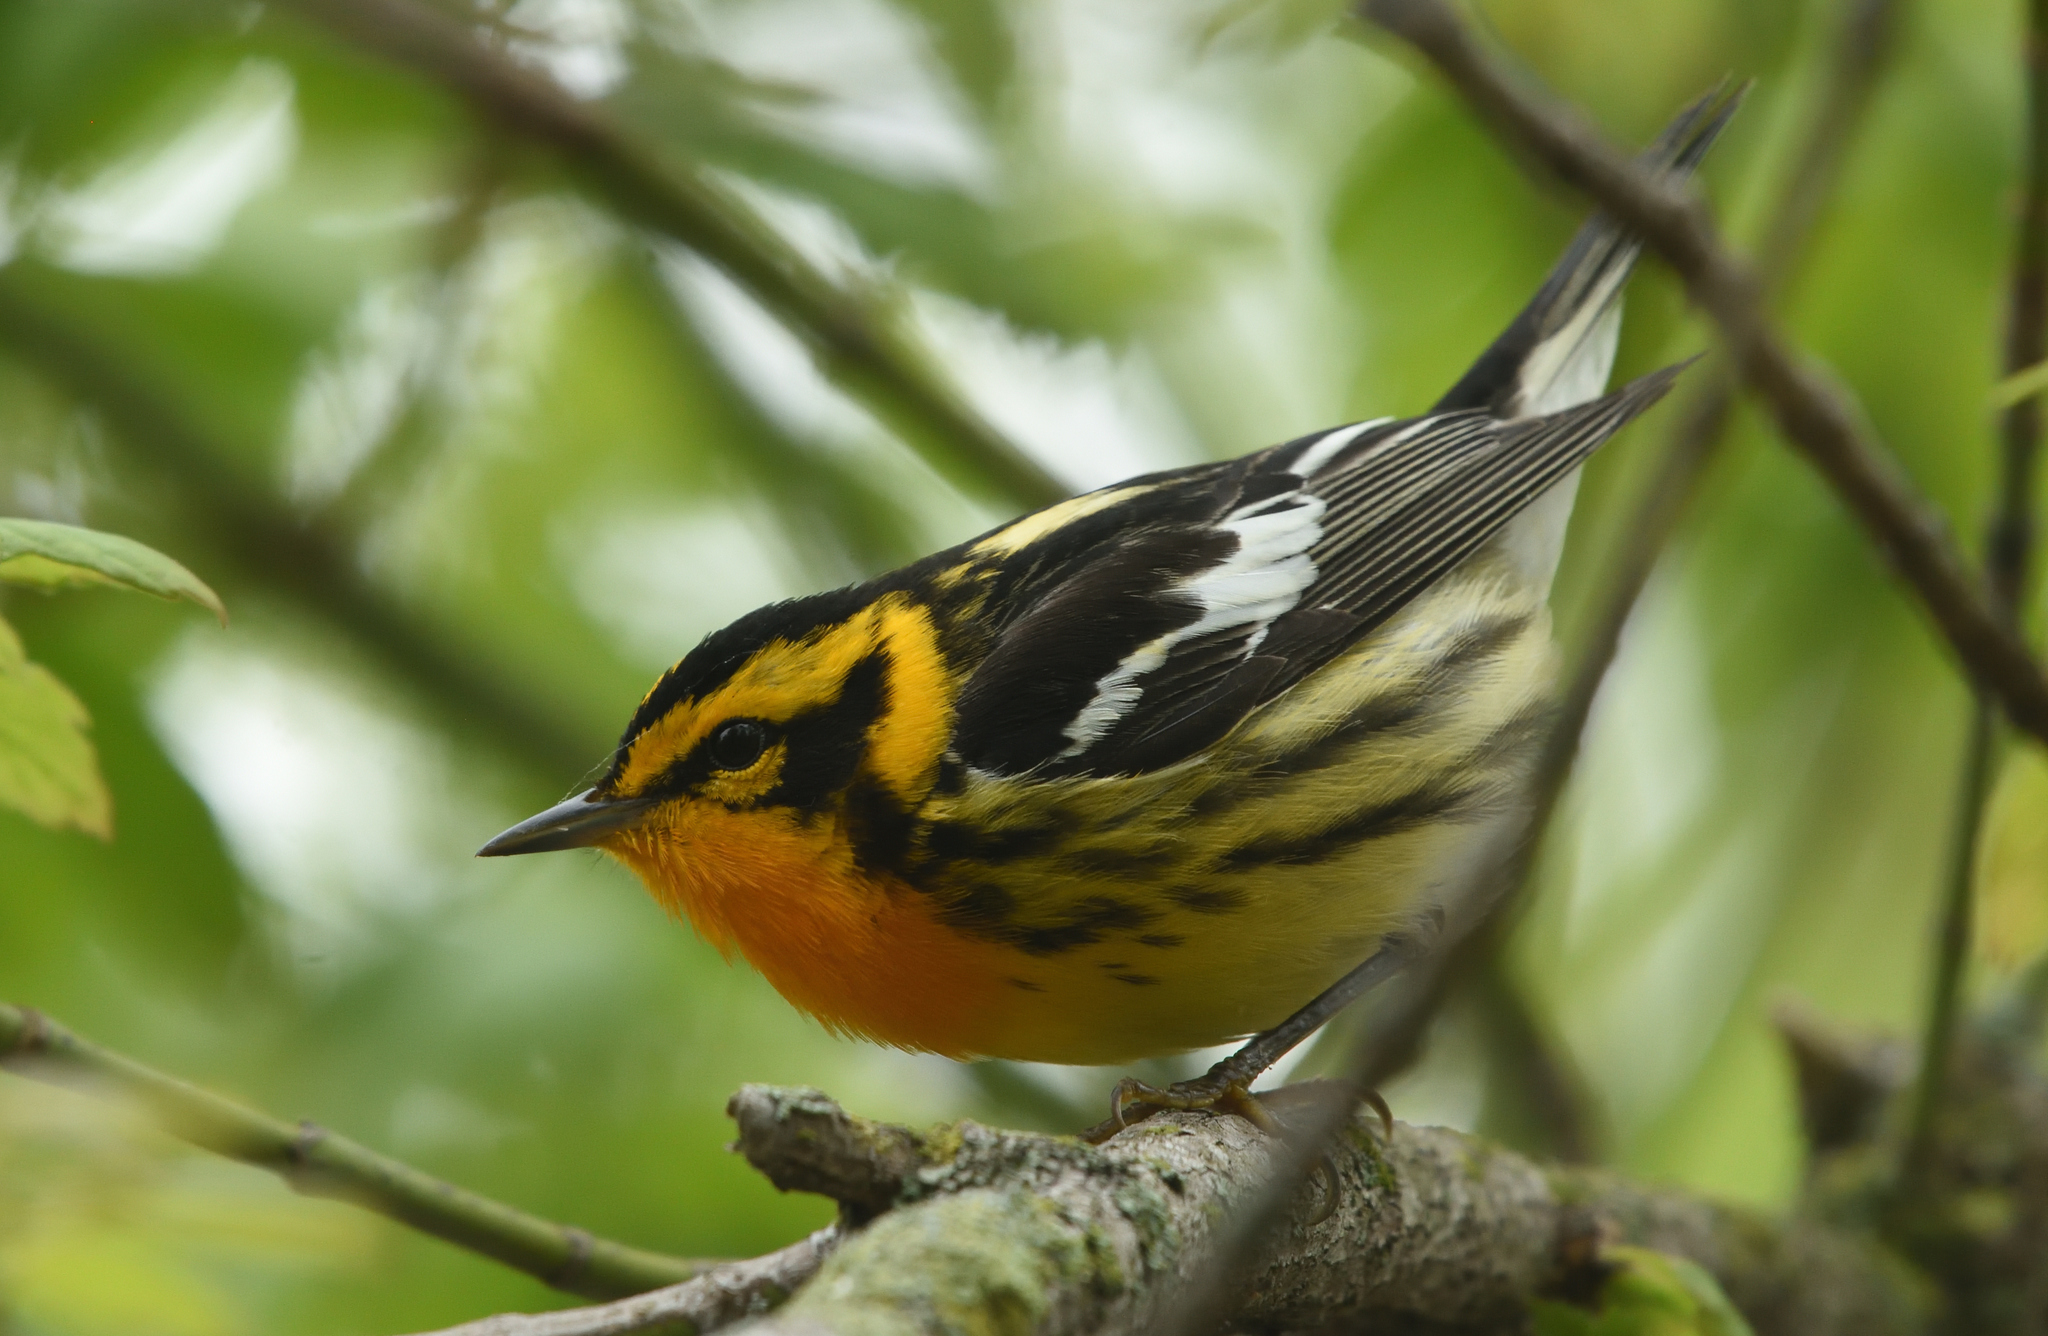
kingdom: Animalia
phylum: Chordata
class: Aves
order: Passeriformes
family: Parulidae
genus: Setophaga
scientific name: Setophaga fusca
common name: Blackburnian warbler
